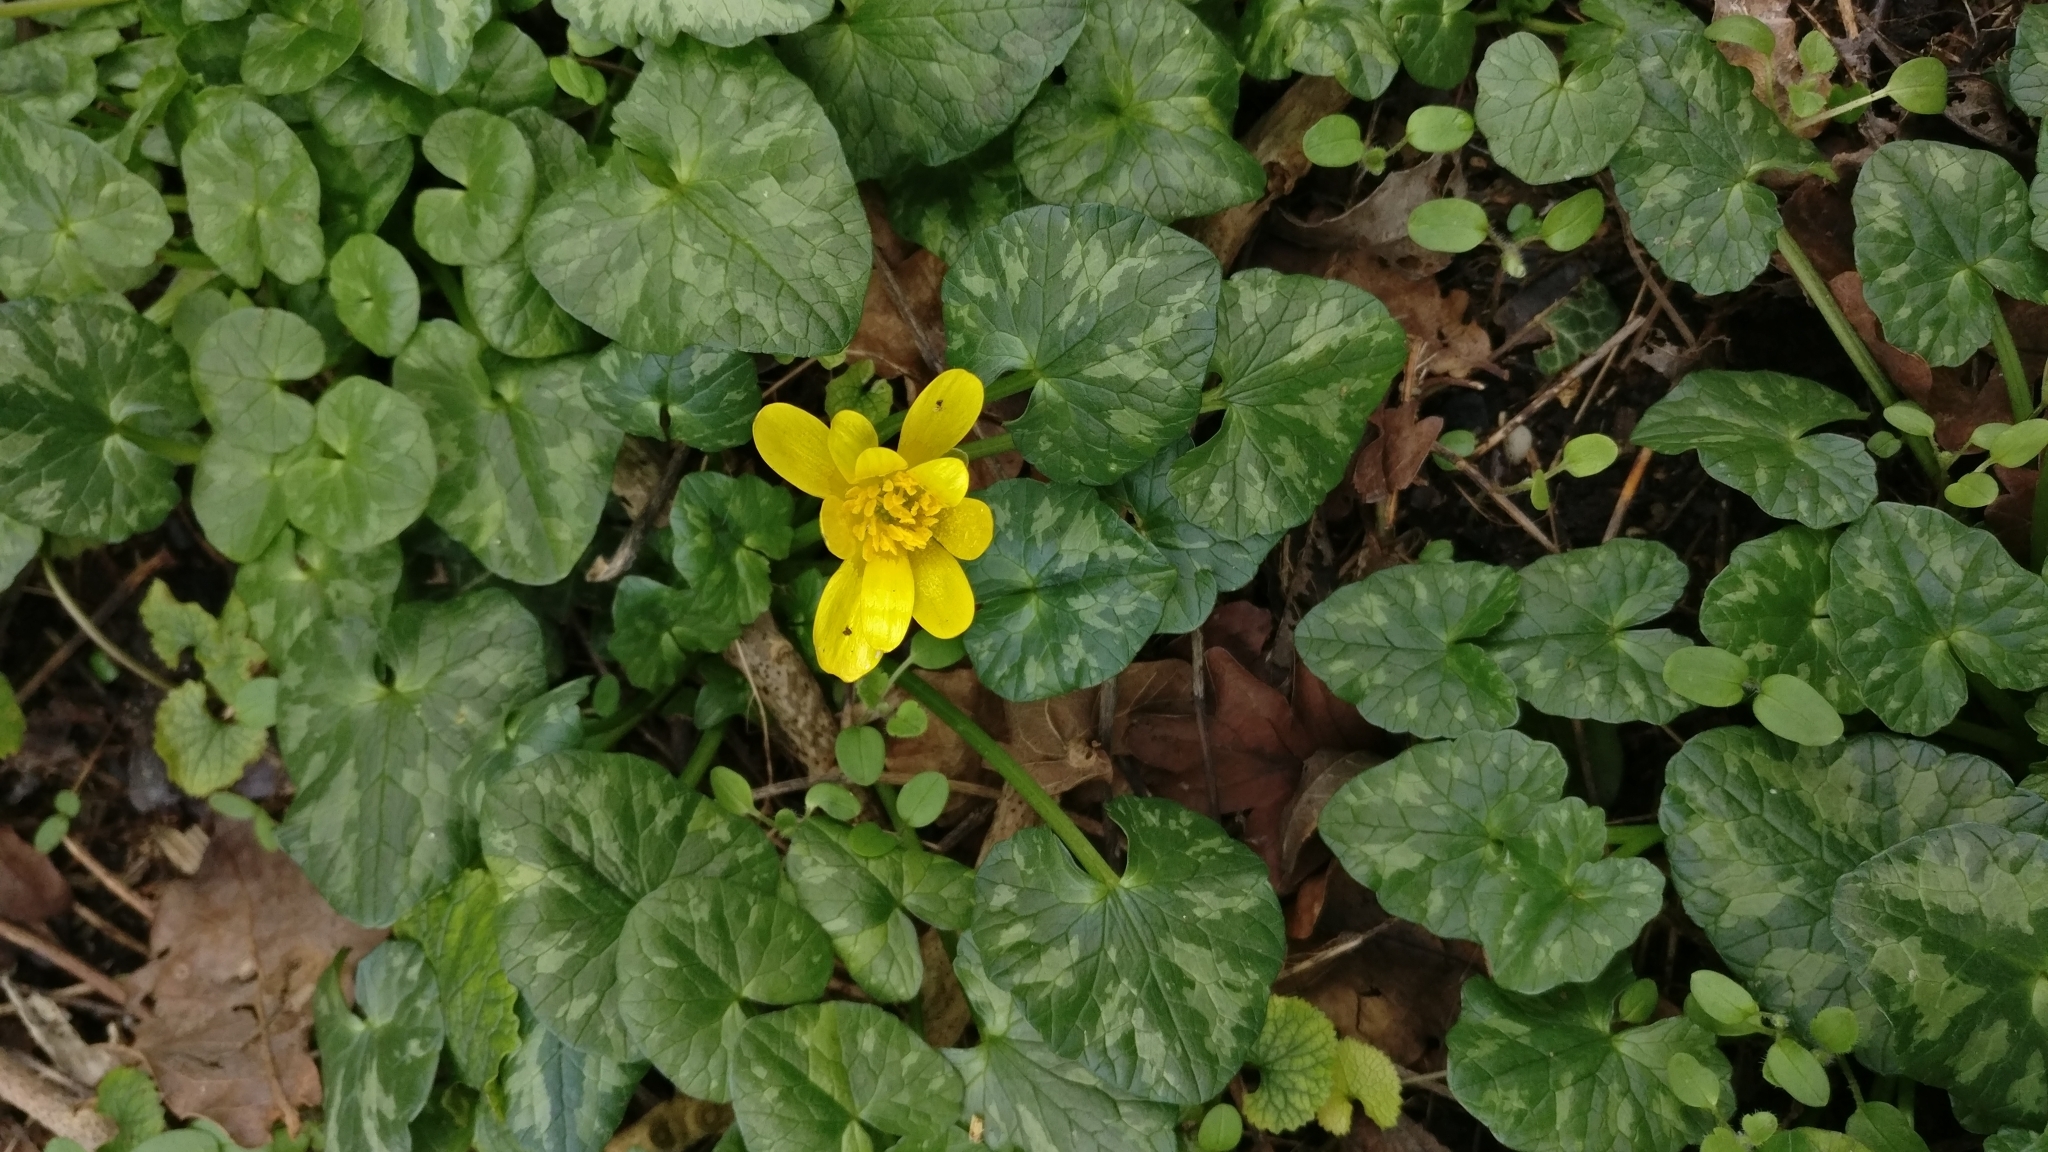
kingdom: Plantae
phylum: Tracheophyta
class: Magnoliopsida
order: Ranunculales
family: Ranunculaceae
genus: Ficaria
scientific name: Ficaria verna
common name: Lesser celandine
